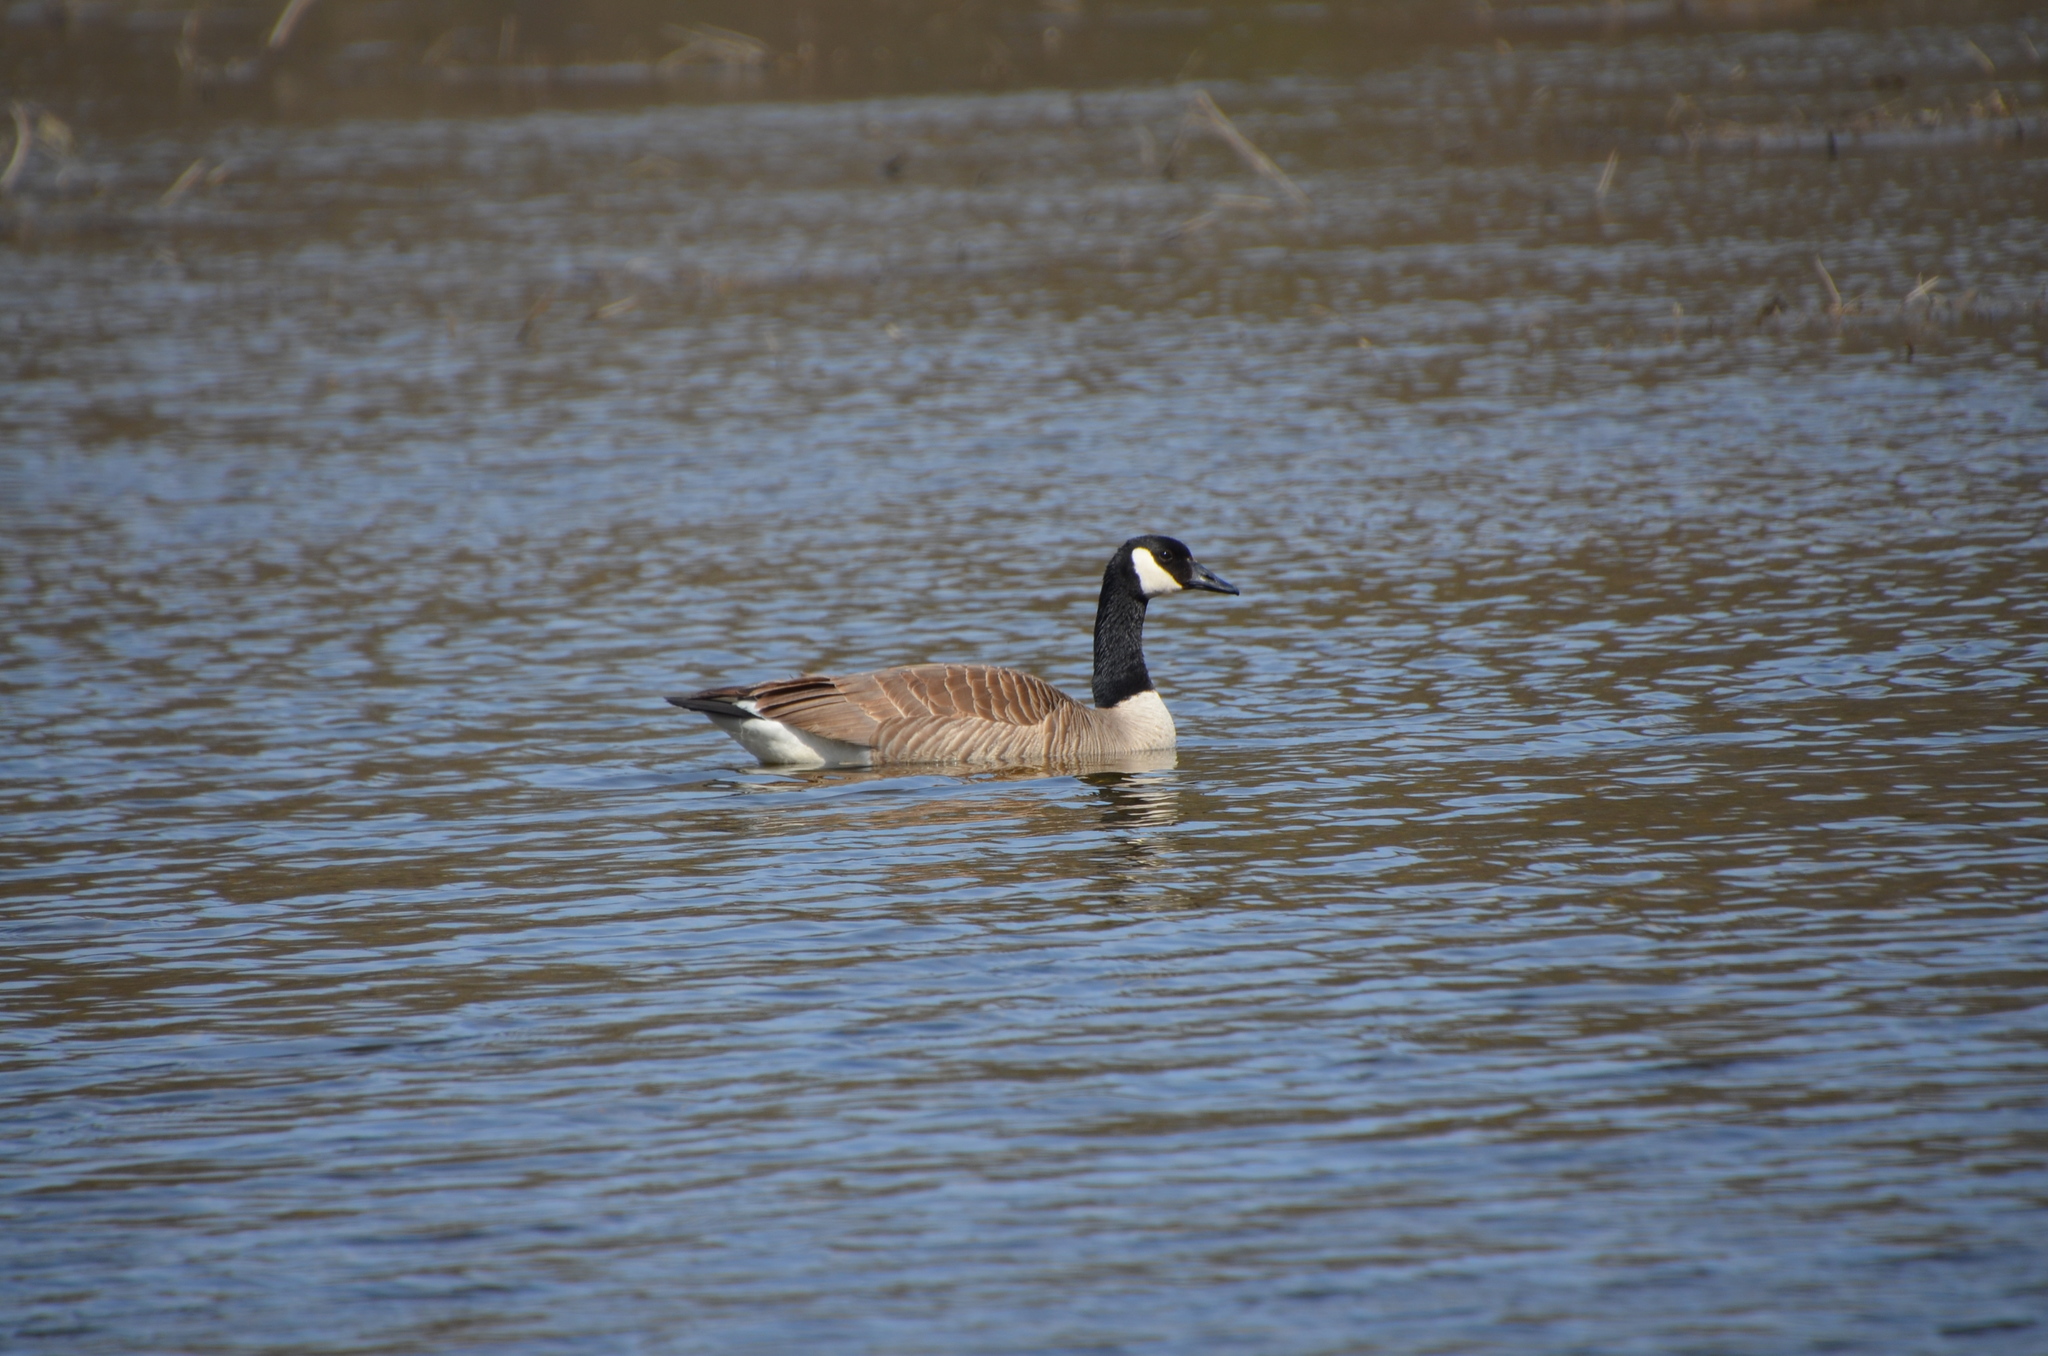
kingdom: Animalia
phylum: Chordata
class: Aves
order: Anseriformes
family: Anatidae
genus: Branta
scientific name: Branta canadensis
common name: Canada goose
